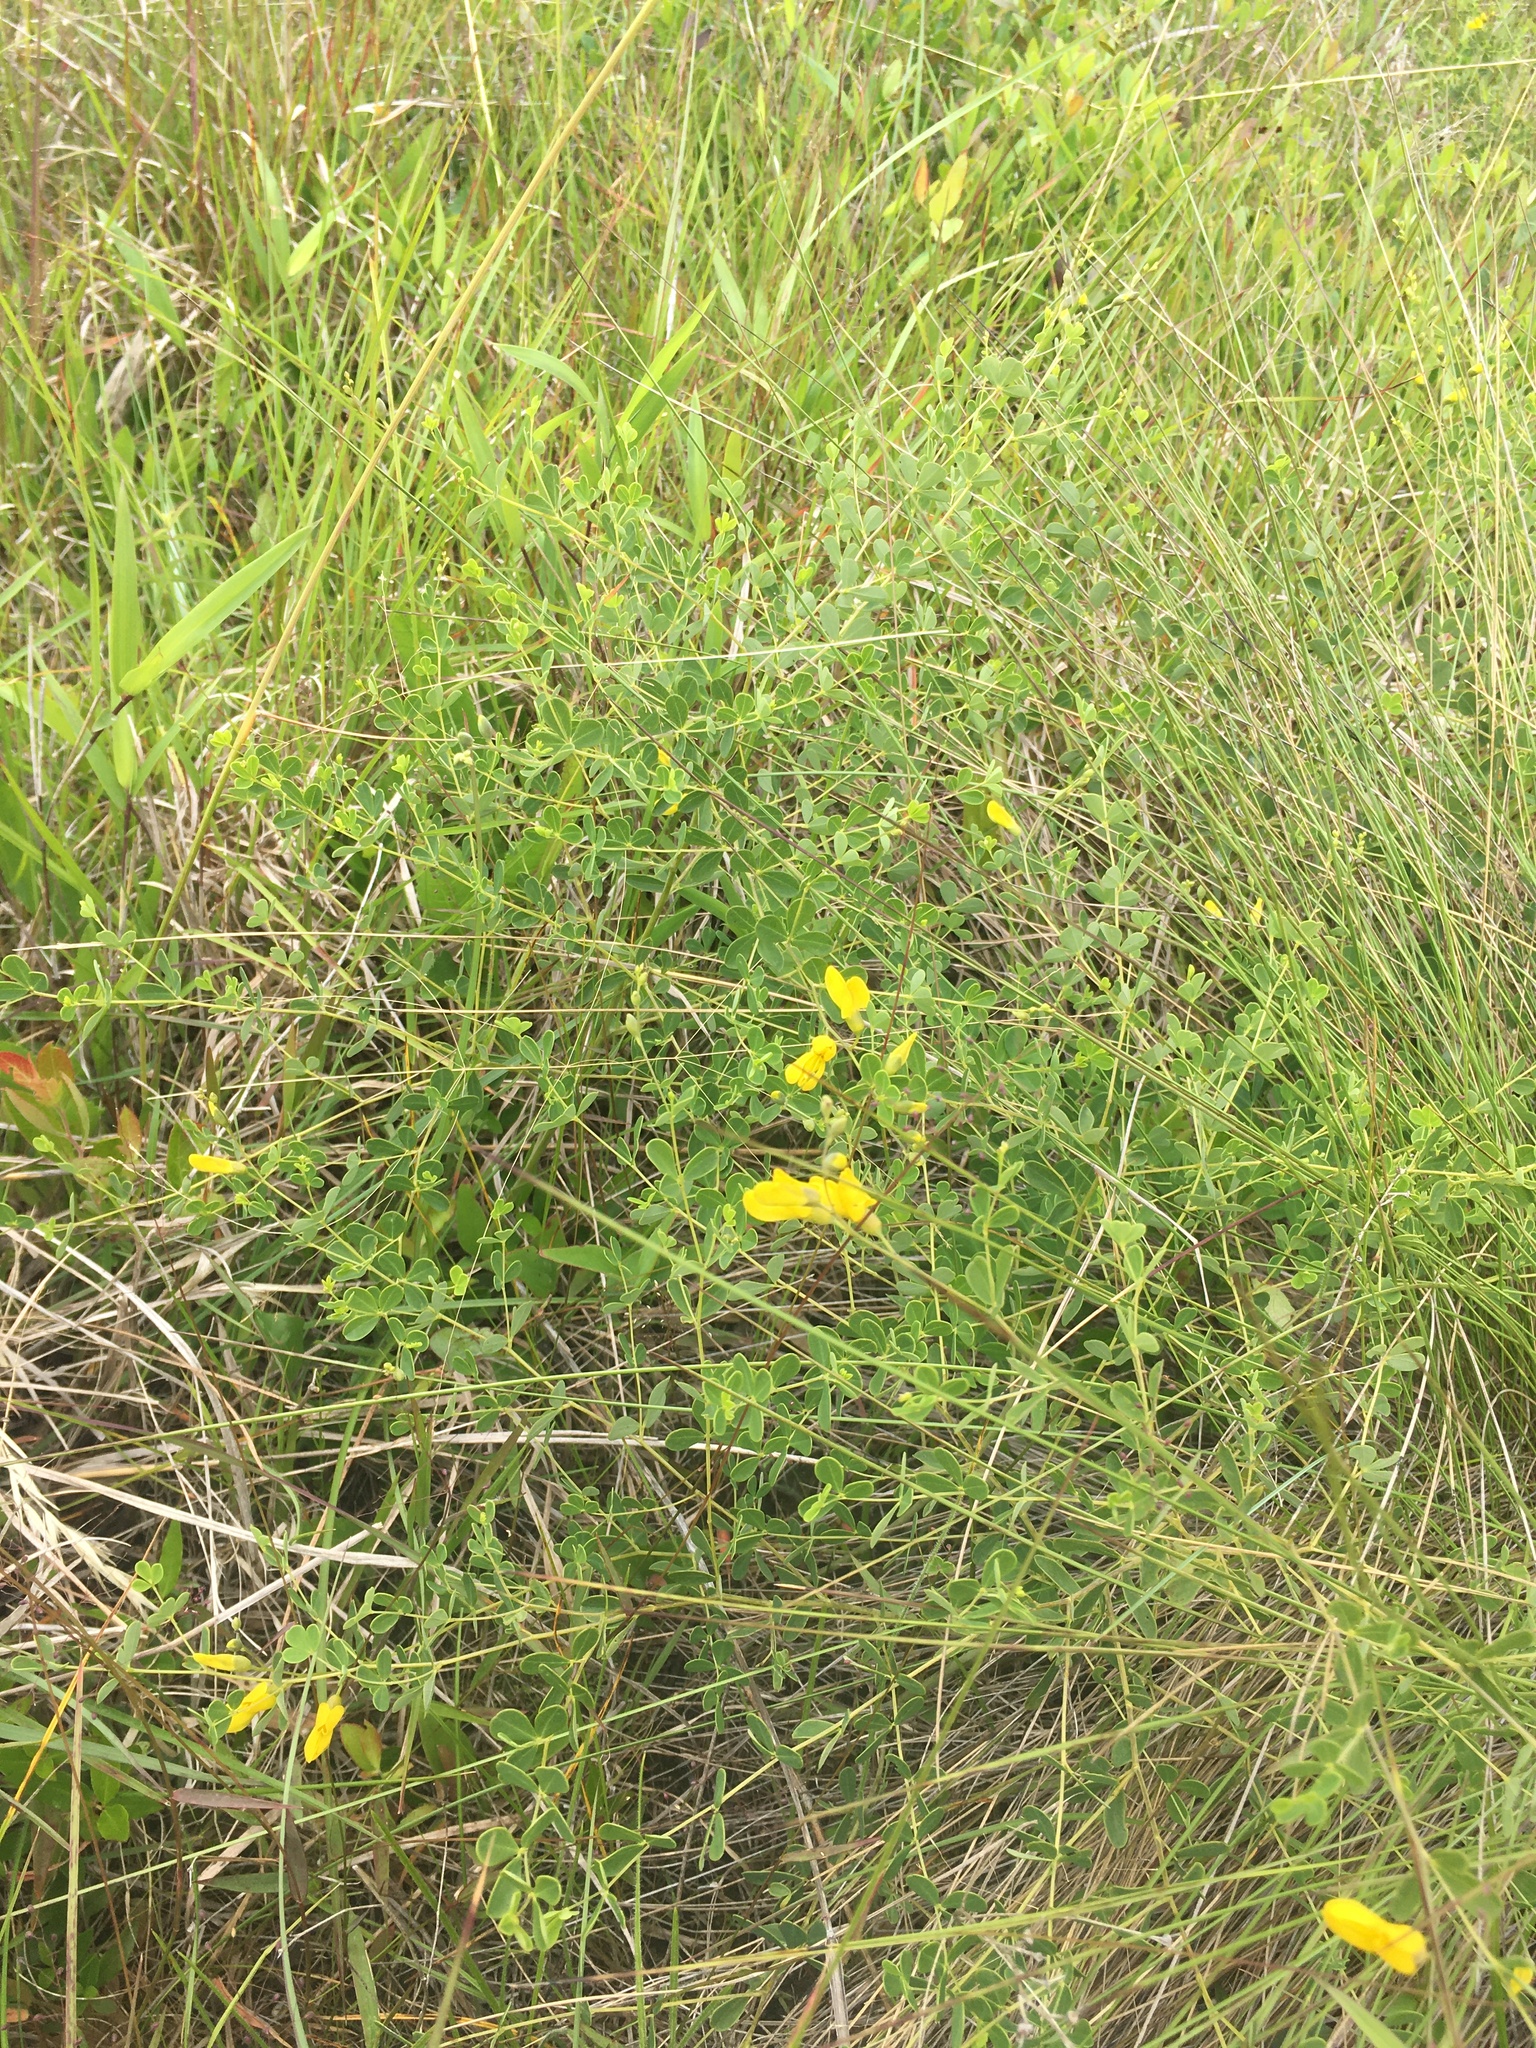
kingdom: Plantae
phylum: Tracheophyta
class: Magnoliopsida
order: Fabales
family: Fabaceae
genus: Baptisia
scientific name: Baptisia tinctoria
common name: Wild indigo
